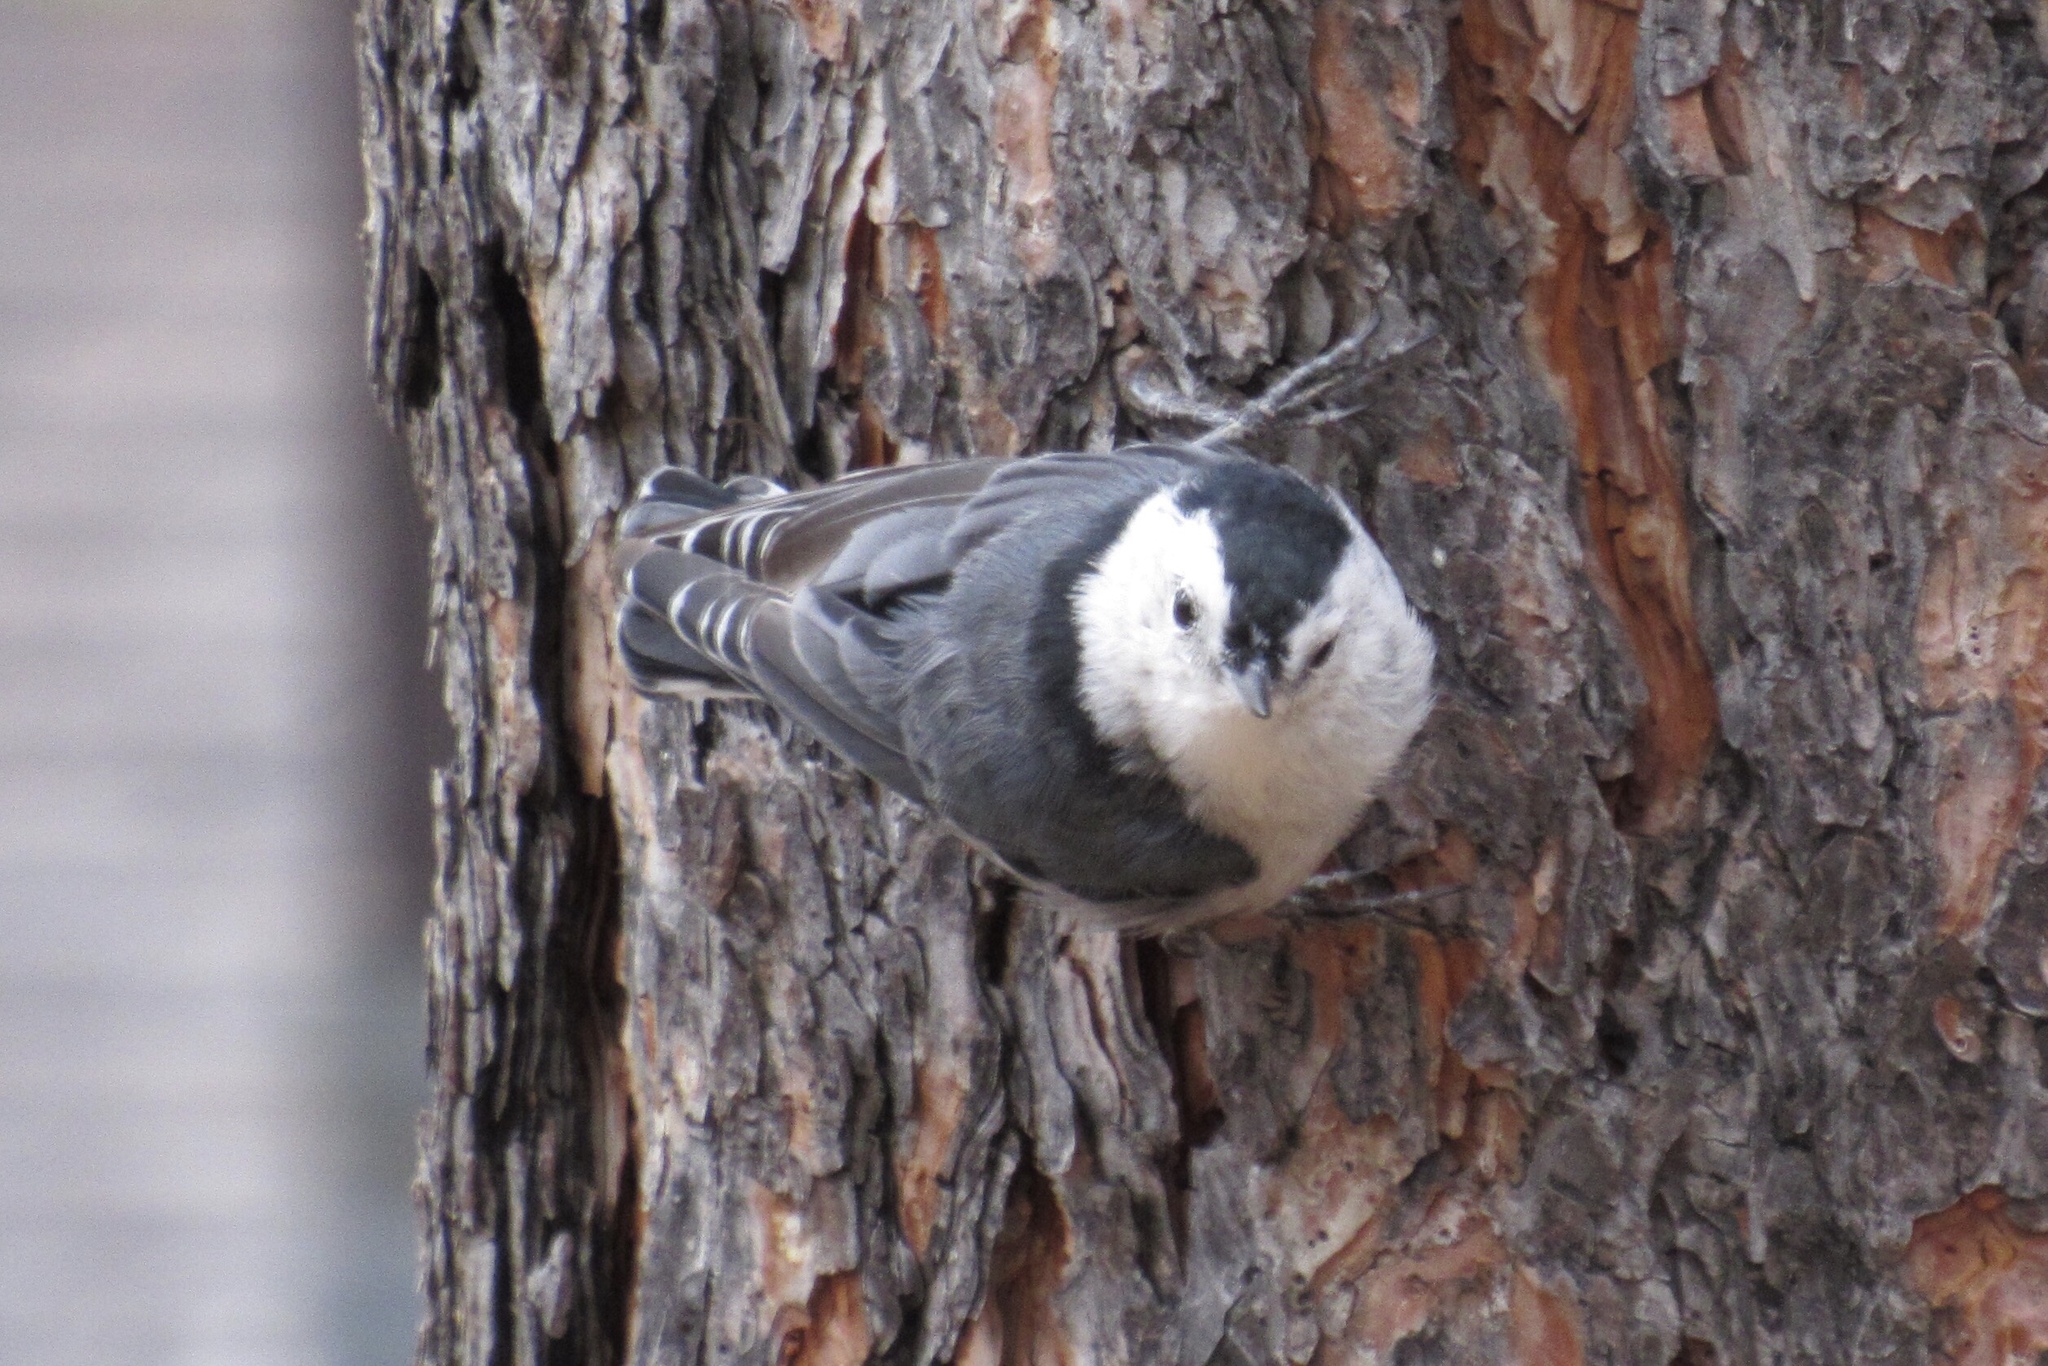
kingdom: Animalia
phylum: Chordata
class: Aves
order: Passeriformes
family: Sittidae
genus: Sitta
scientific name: Sitta carolinensis
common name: White-breasted nuthatch
